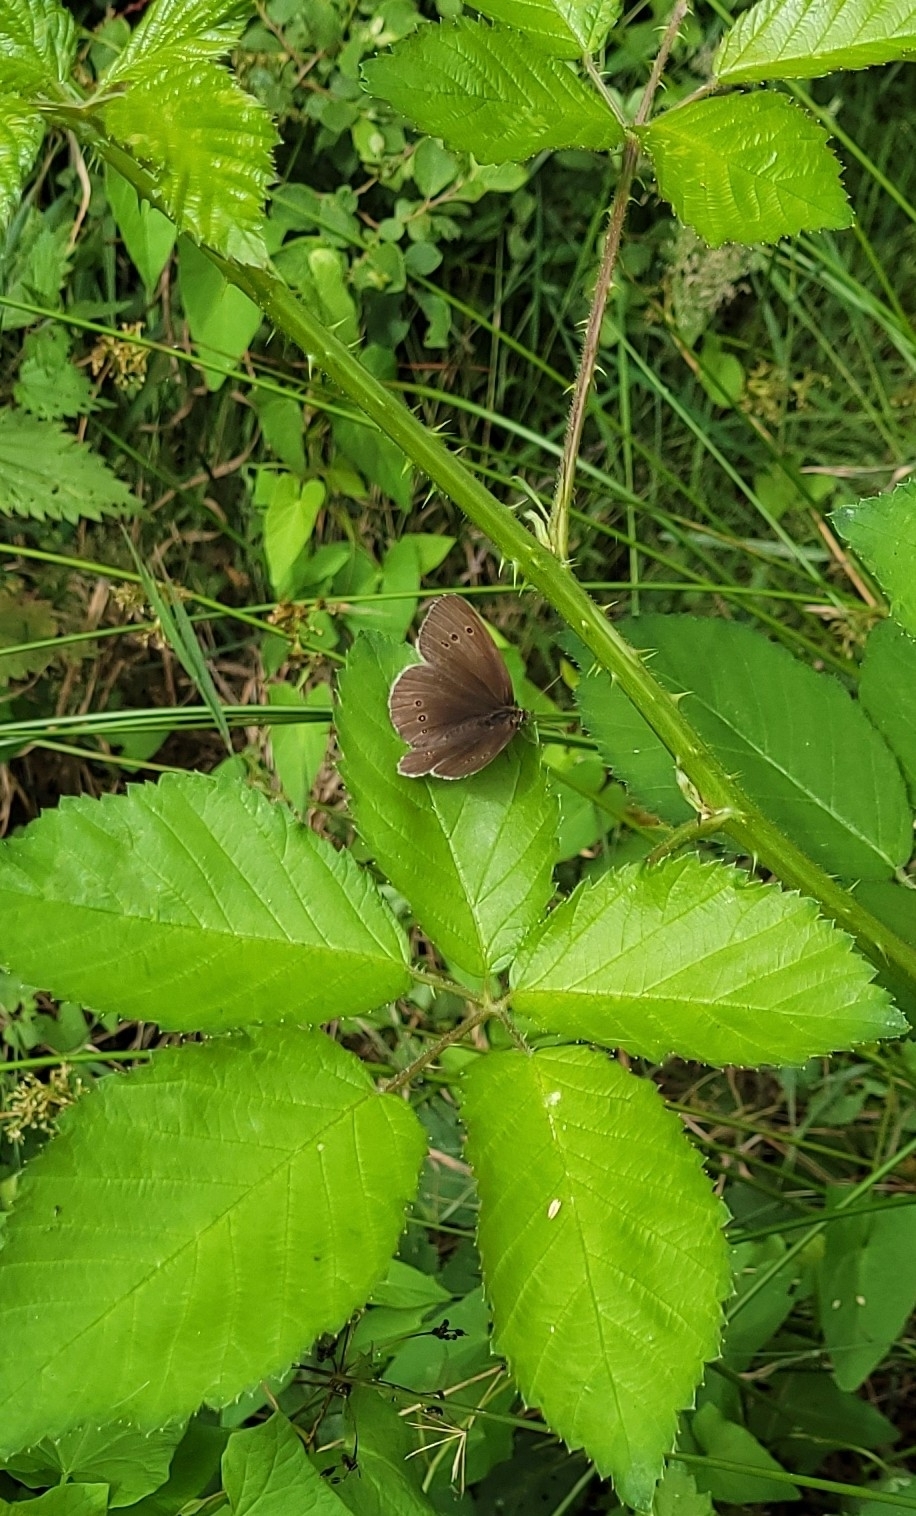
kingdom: Animalia
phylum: Arthropoda
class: Insecta
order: Lepidoptera
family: Nymphalidae
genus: Aphantopus
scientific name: Aphantopus hyperantus
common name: Ringlet
